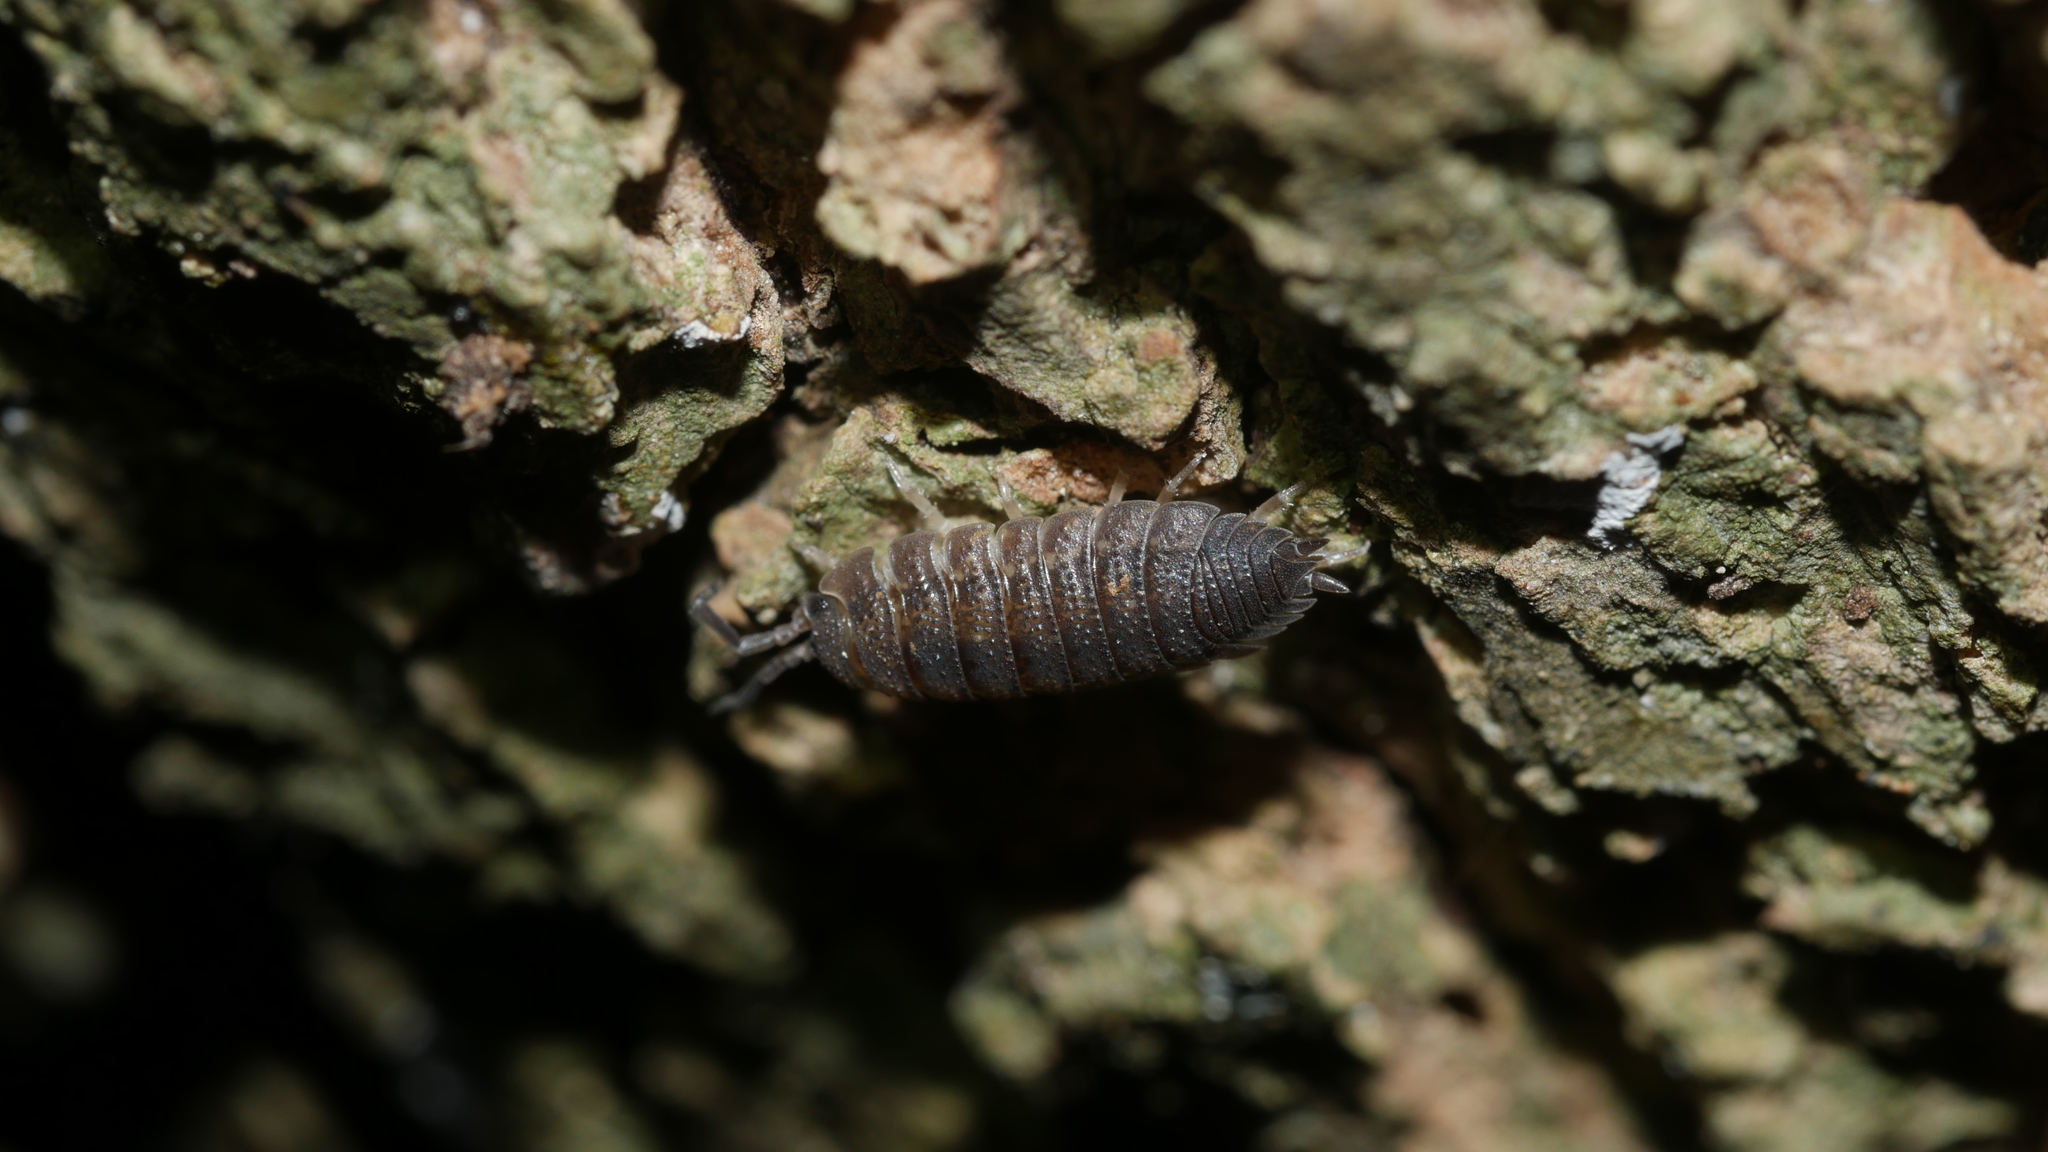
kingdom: Animalia
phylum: Arthropoda
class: Malacostraca
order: Isopoda
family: Porcellionidae
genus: Porcellio
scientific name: Porcellio scaber
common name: Common rough woodlouse
